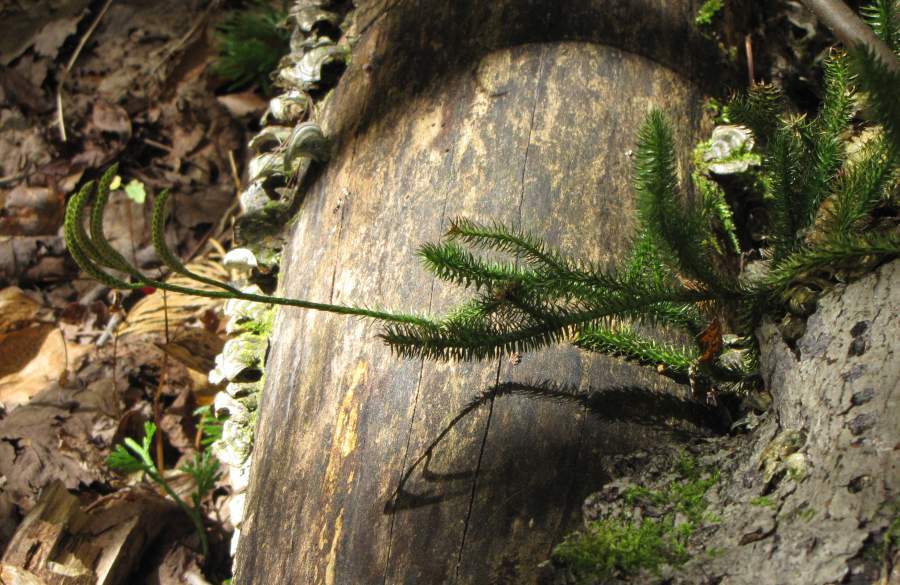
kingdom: Plantae
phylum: Tracheophyta
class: Lycopodiopsida
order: Lycopodiales
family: Lycopodiaceae
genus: Lycopodium
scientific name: Lycopodium clavatum
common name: Stag's-horn clubmoss
